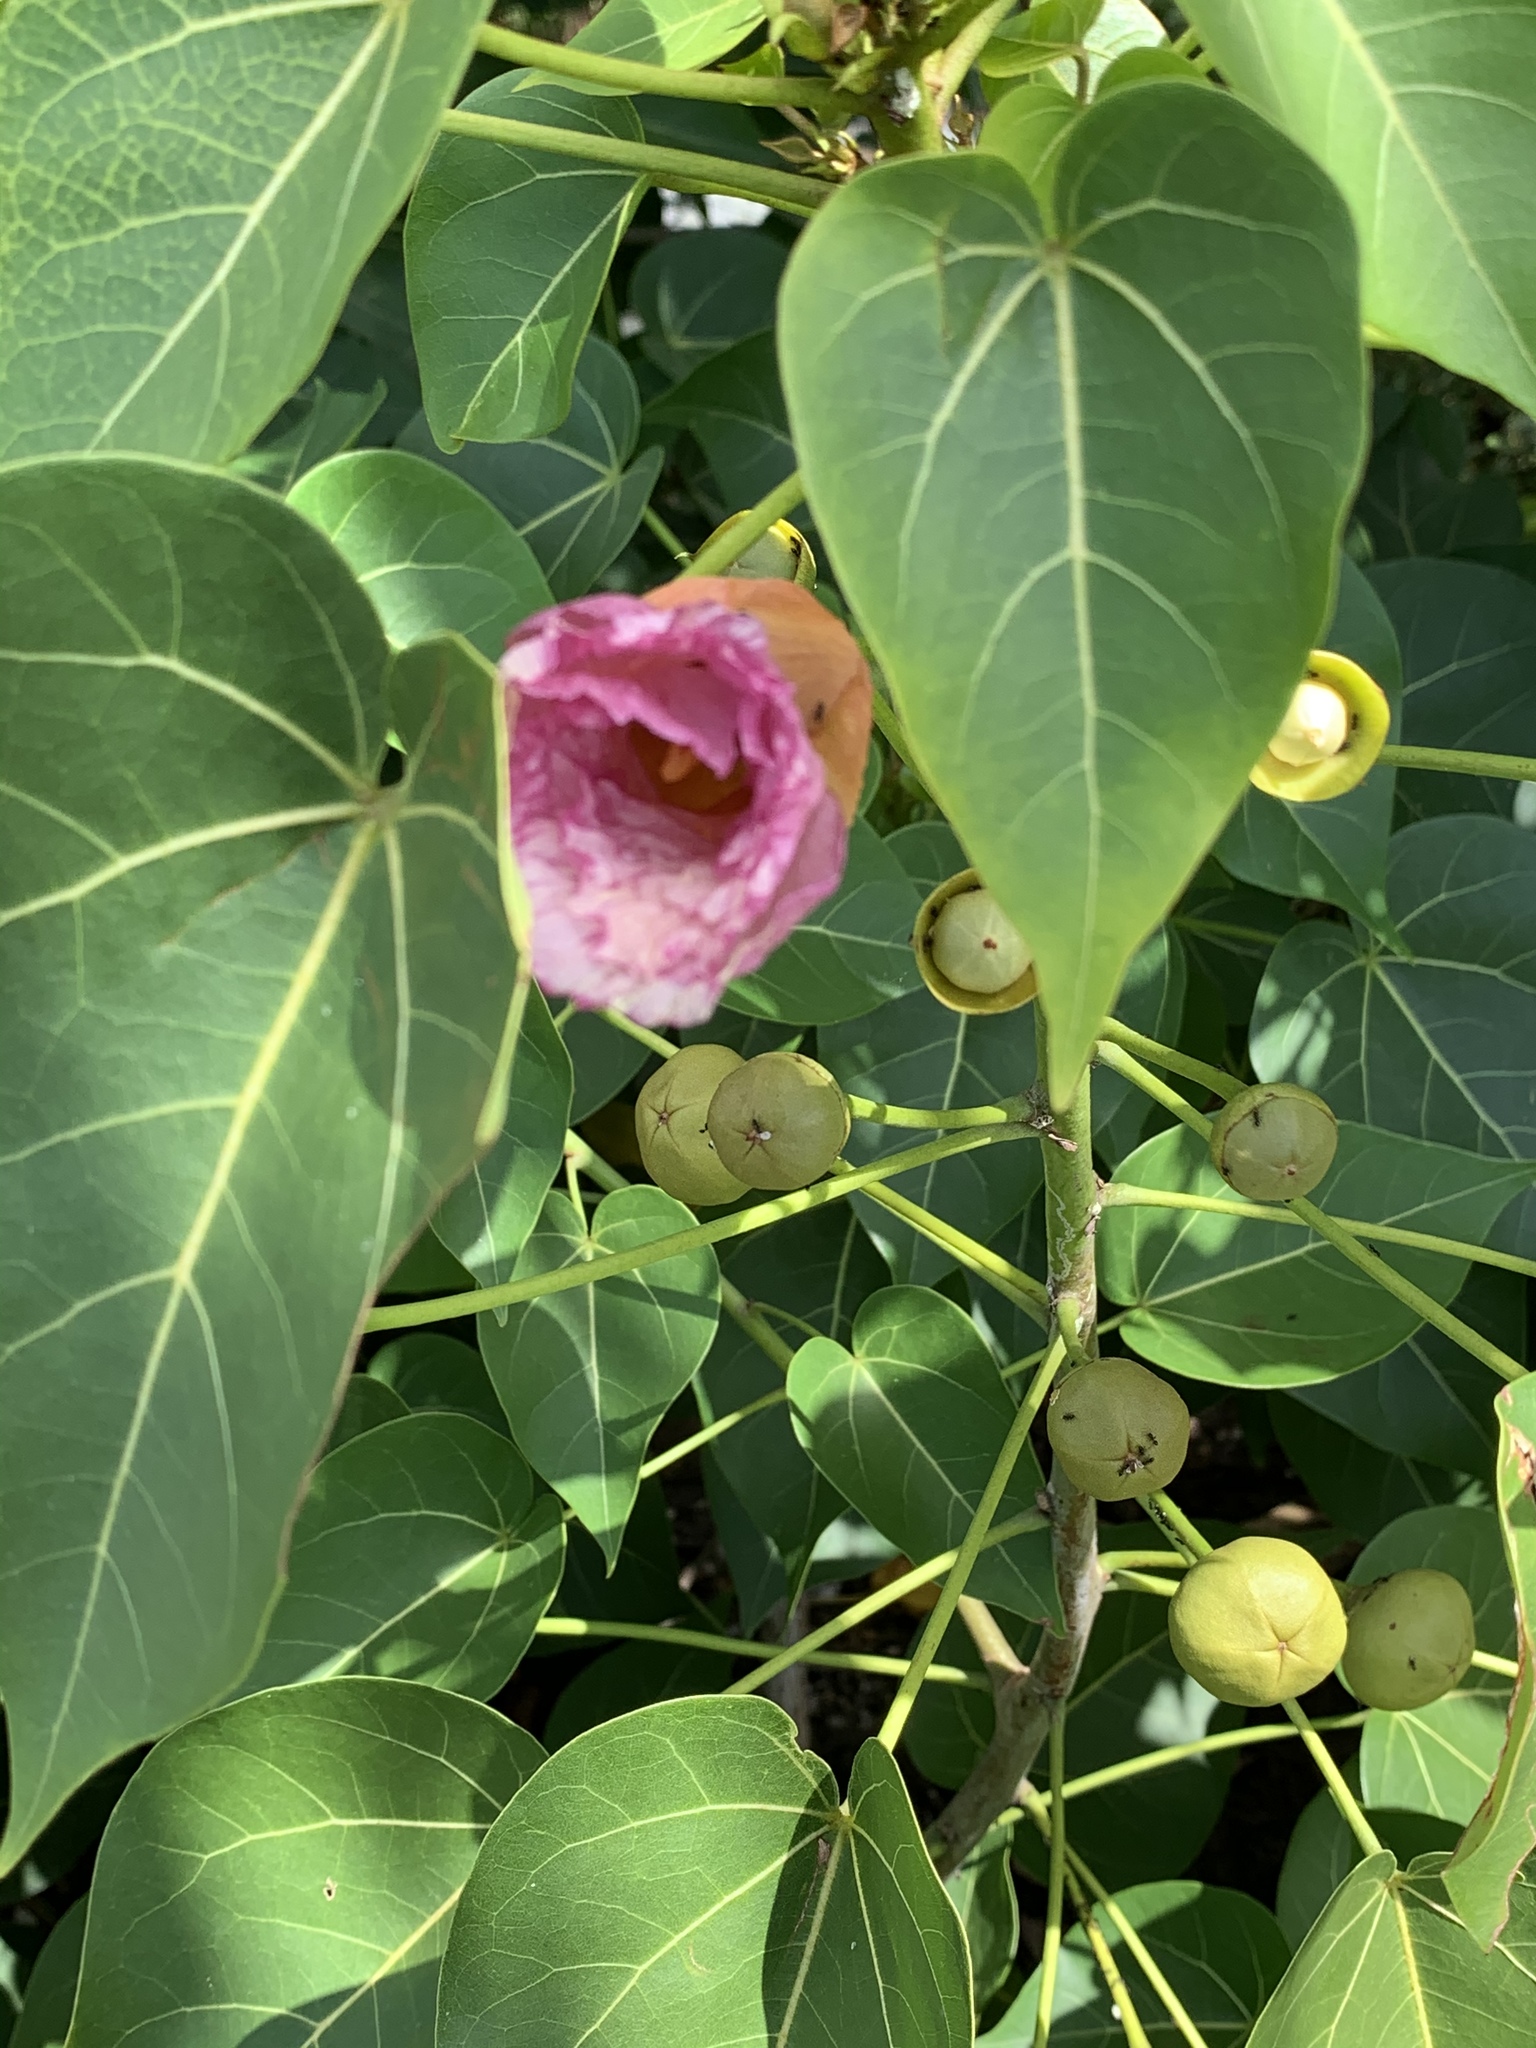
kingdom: Plantae
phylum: Tracheophyta
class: Magnoliopsida
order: Malvales
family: Malvaceae
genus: Thespesia
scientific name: Thespesia populnea
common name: Seaside mahoe
